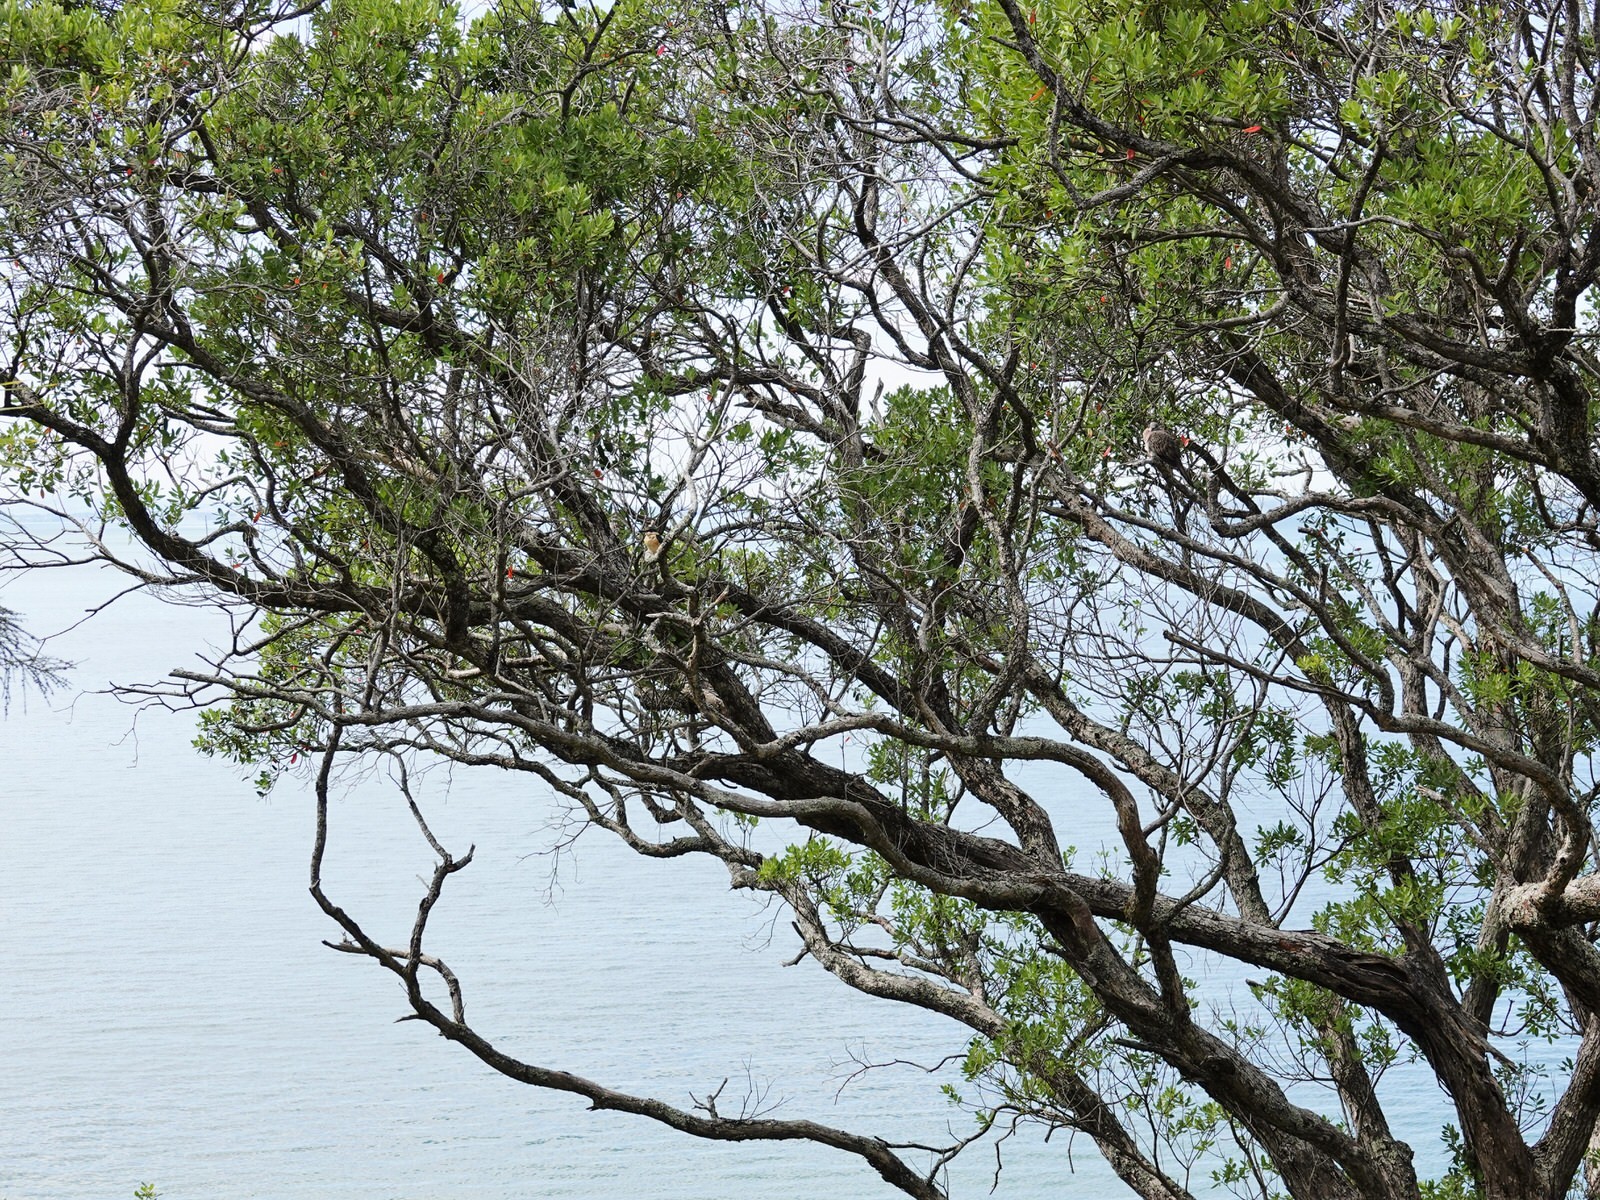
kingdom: Animalia
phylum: Chordata
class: Aves
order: Columbiformes
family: Columbidae
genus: Spilopelia
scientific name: Spilopelia chinensis
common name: Spotted dove
